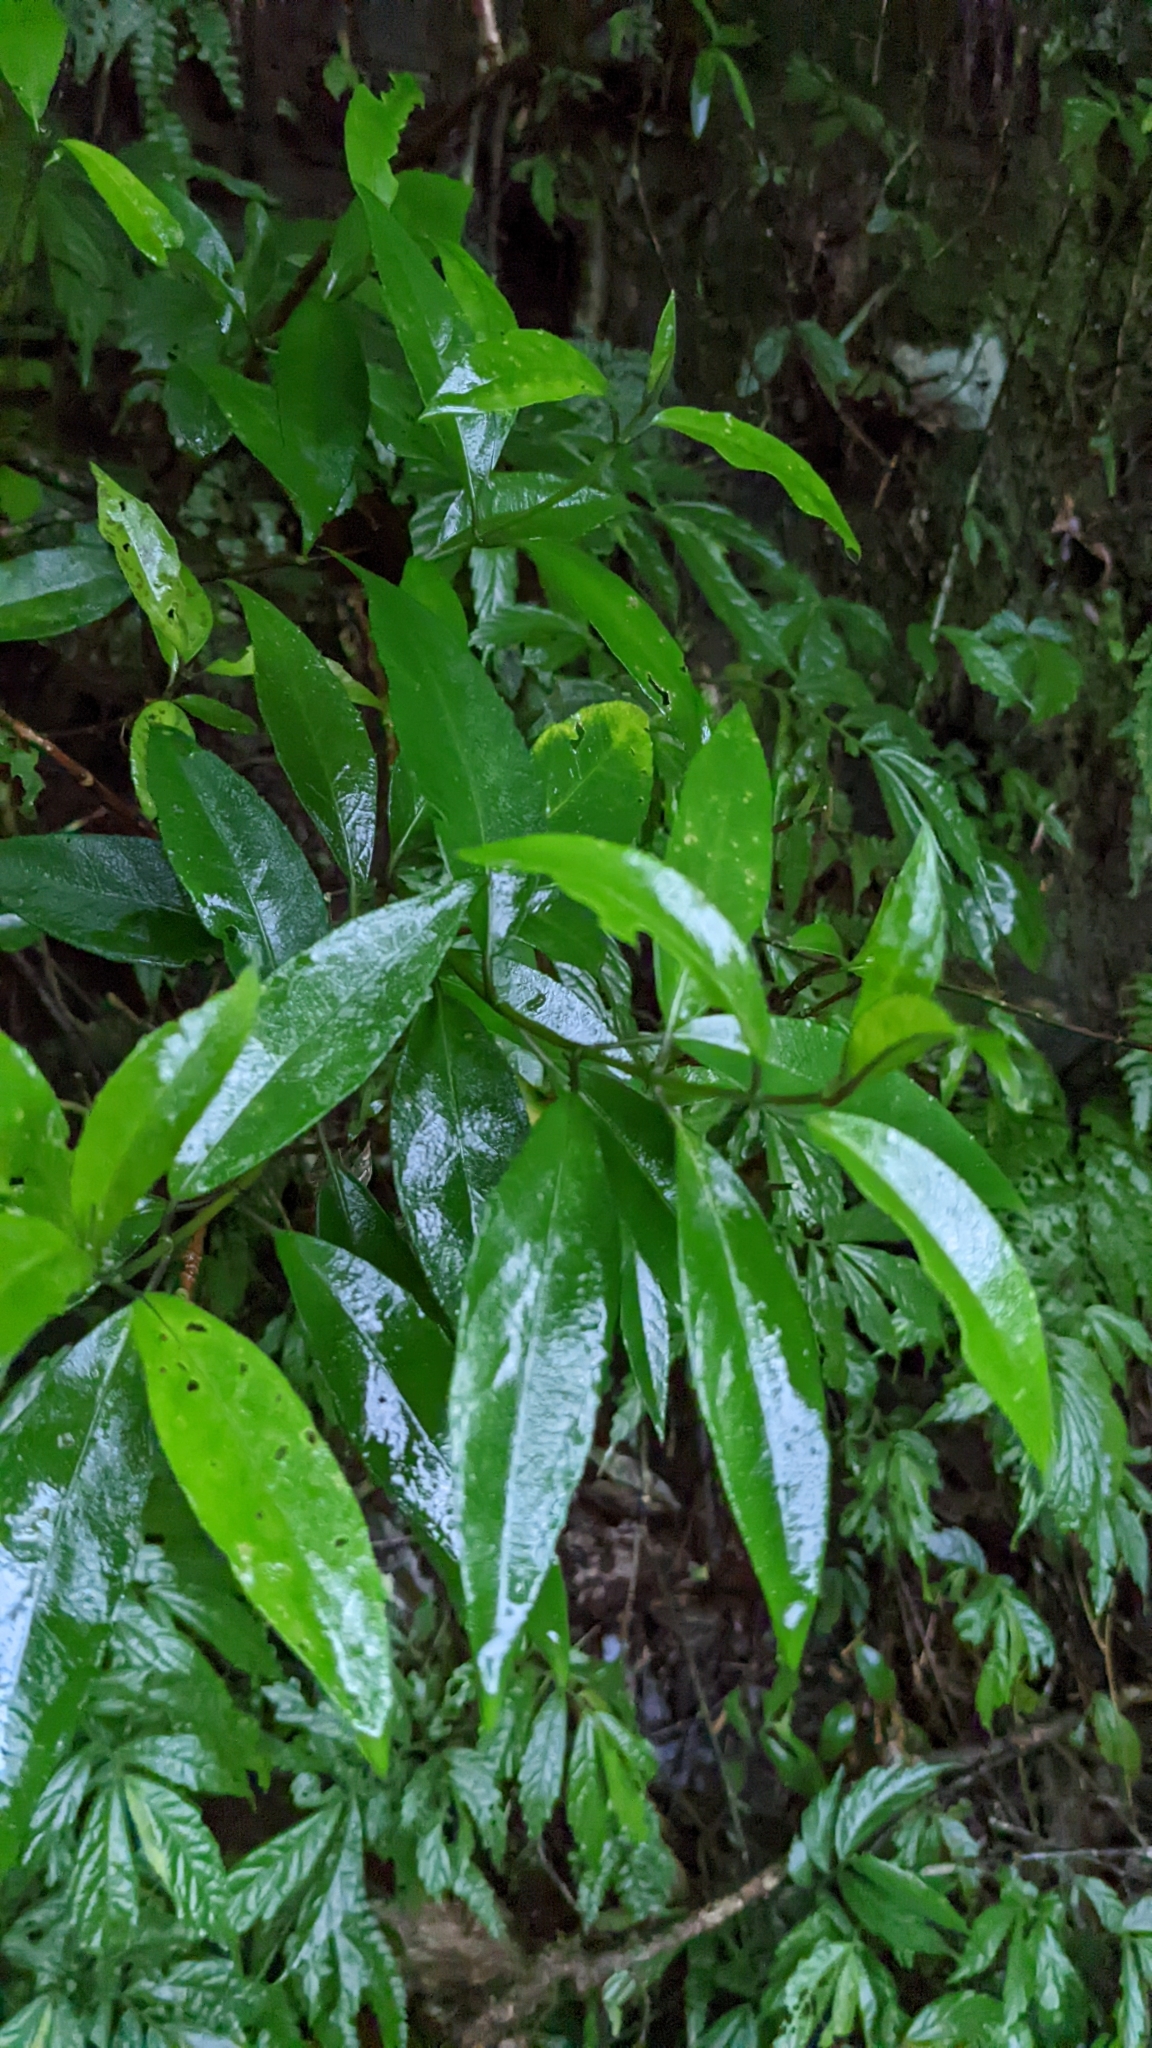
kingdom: Plantae
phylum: Tracheophyta
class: Magnoliopsida
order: Cornales
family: Hydrangeaceae
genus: Hydrangea
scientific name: Hydrangea chinensis
